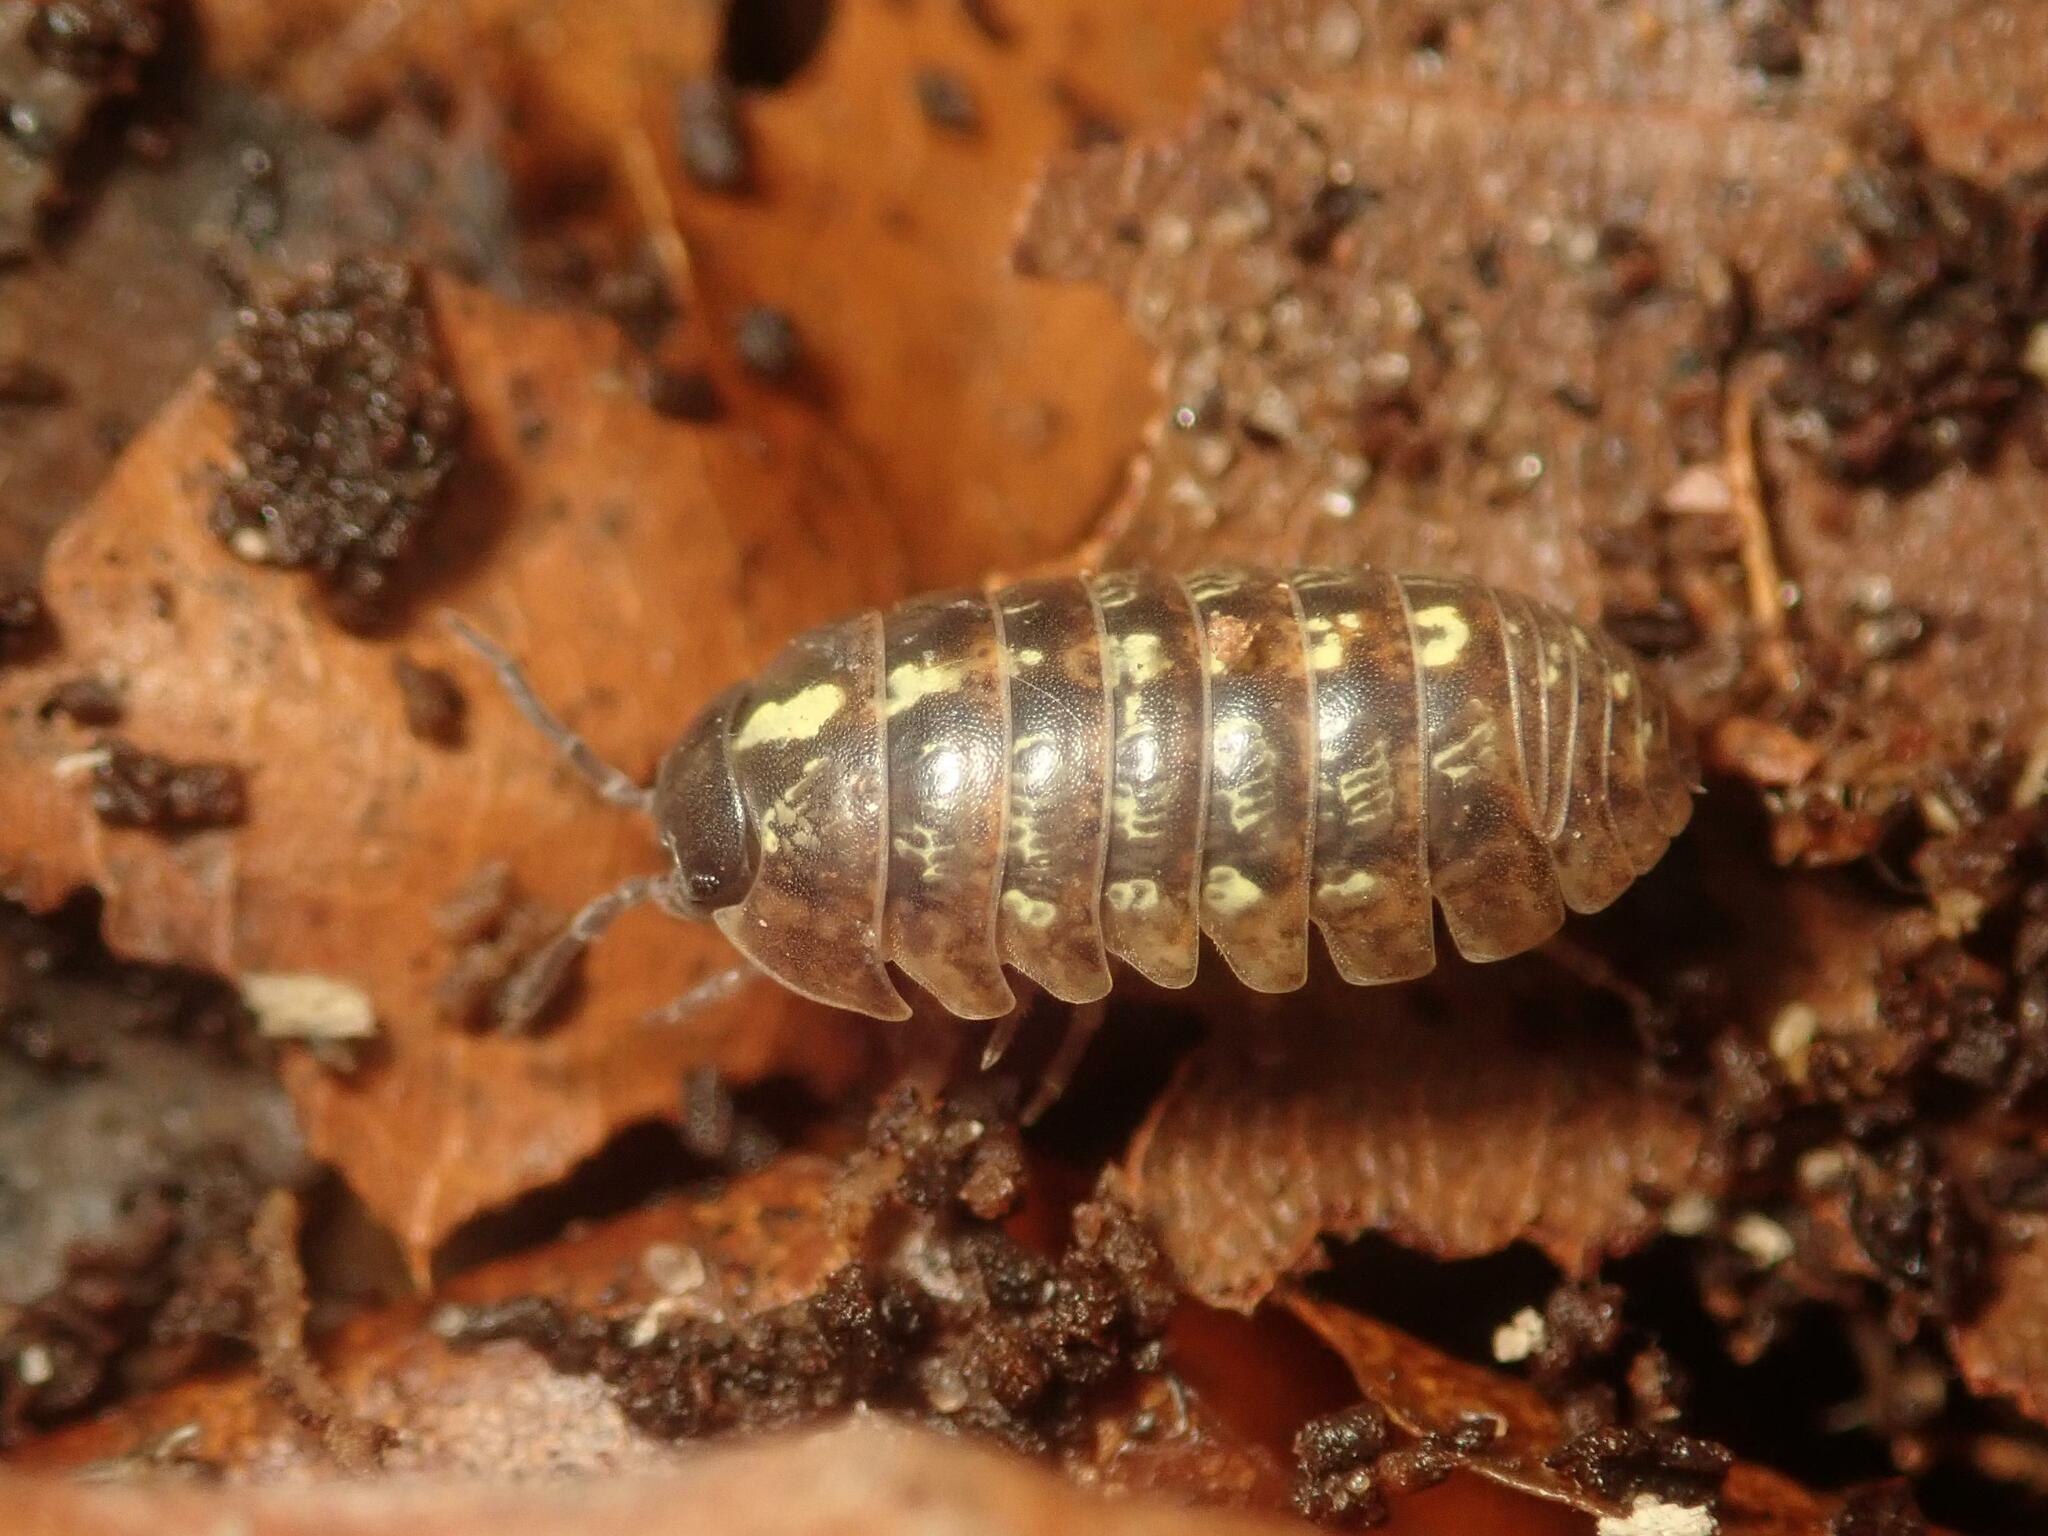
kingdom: Animalia
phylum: Arthropoda
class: Malacostraca
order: Isopoda
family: Armadillidiidae
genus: Armadillidium
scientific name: Armadillidium vulgare
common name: Common pill woodlouse
